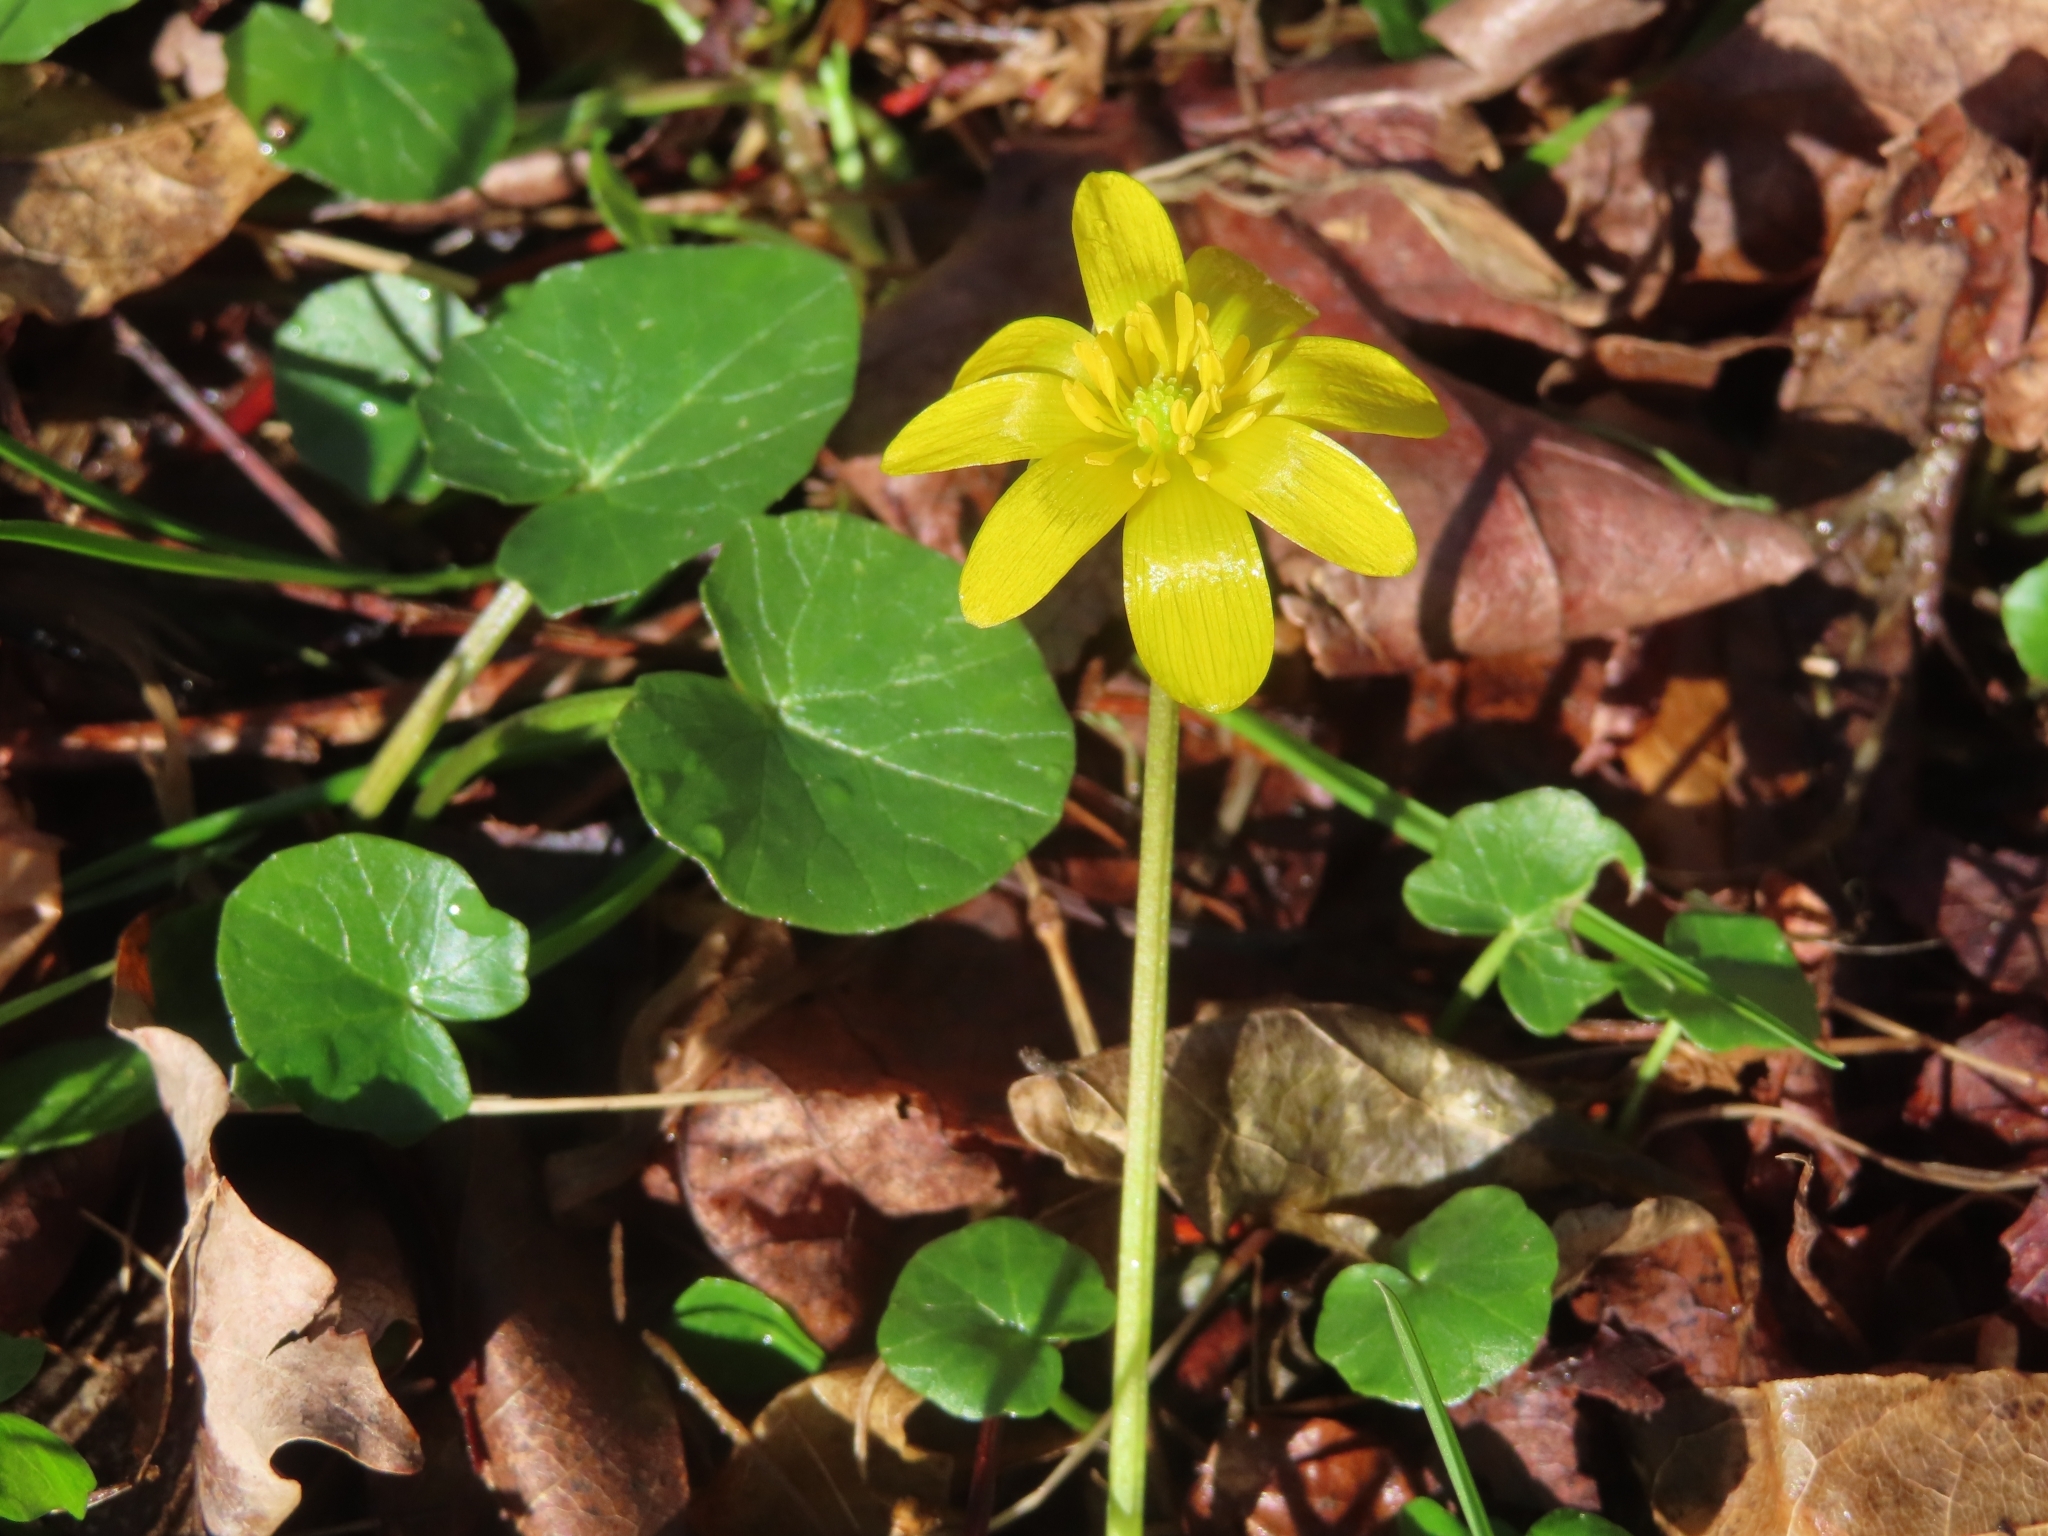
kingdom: Plantae
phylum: Tracheophyta
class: Magnoliopsida
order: Ranunculales
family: Ranunculaceae
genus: Ficaria
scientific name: Ficaria verna
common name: Lesser celandine
